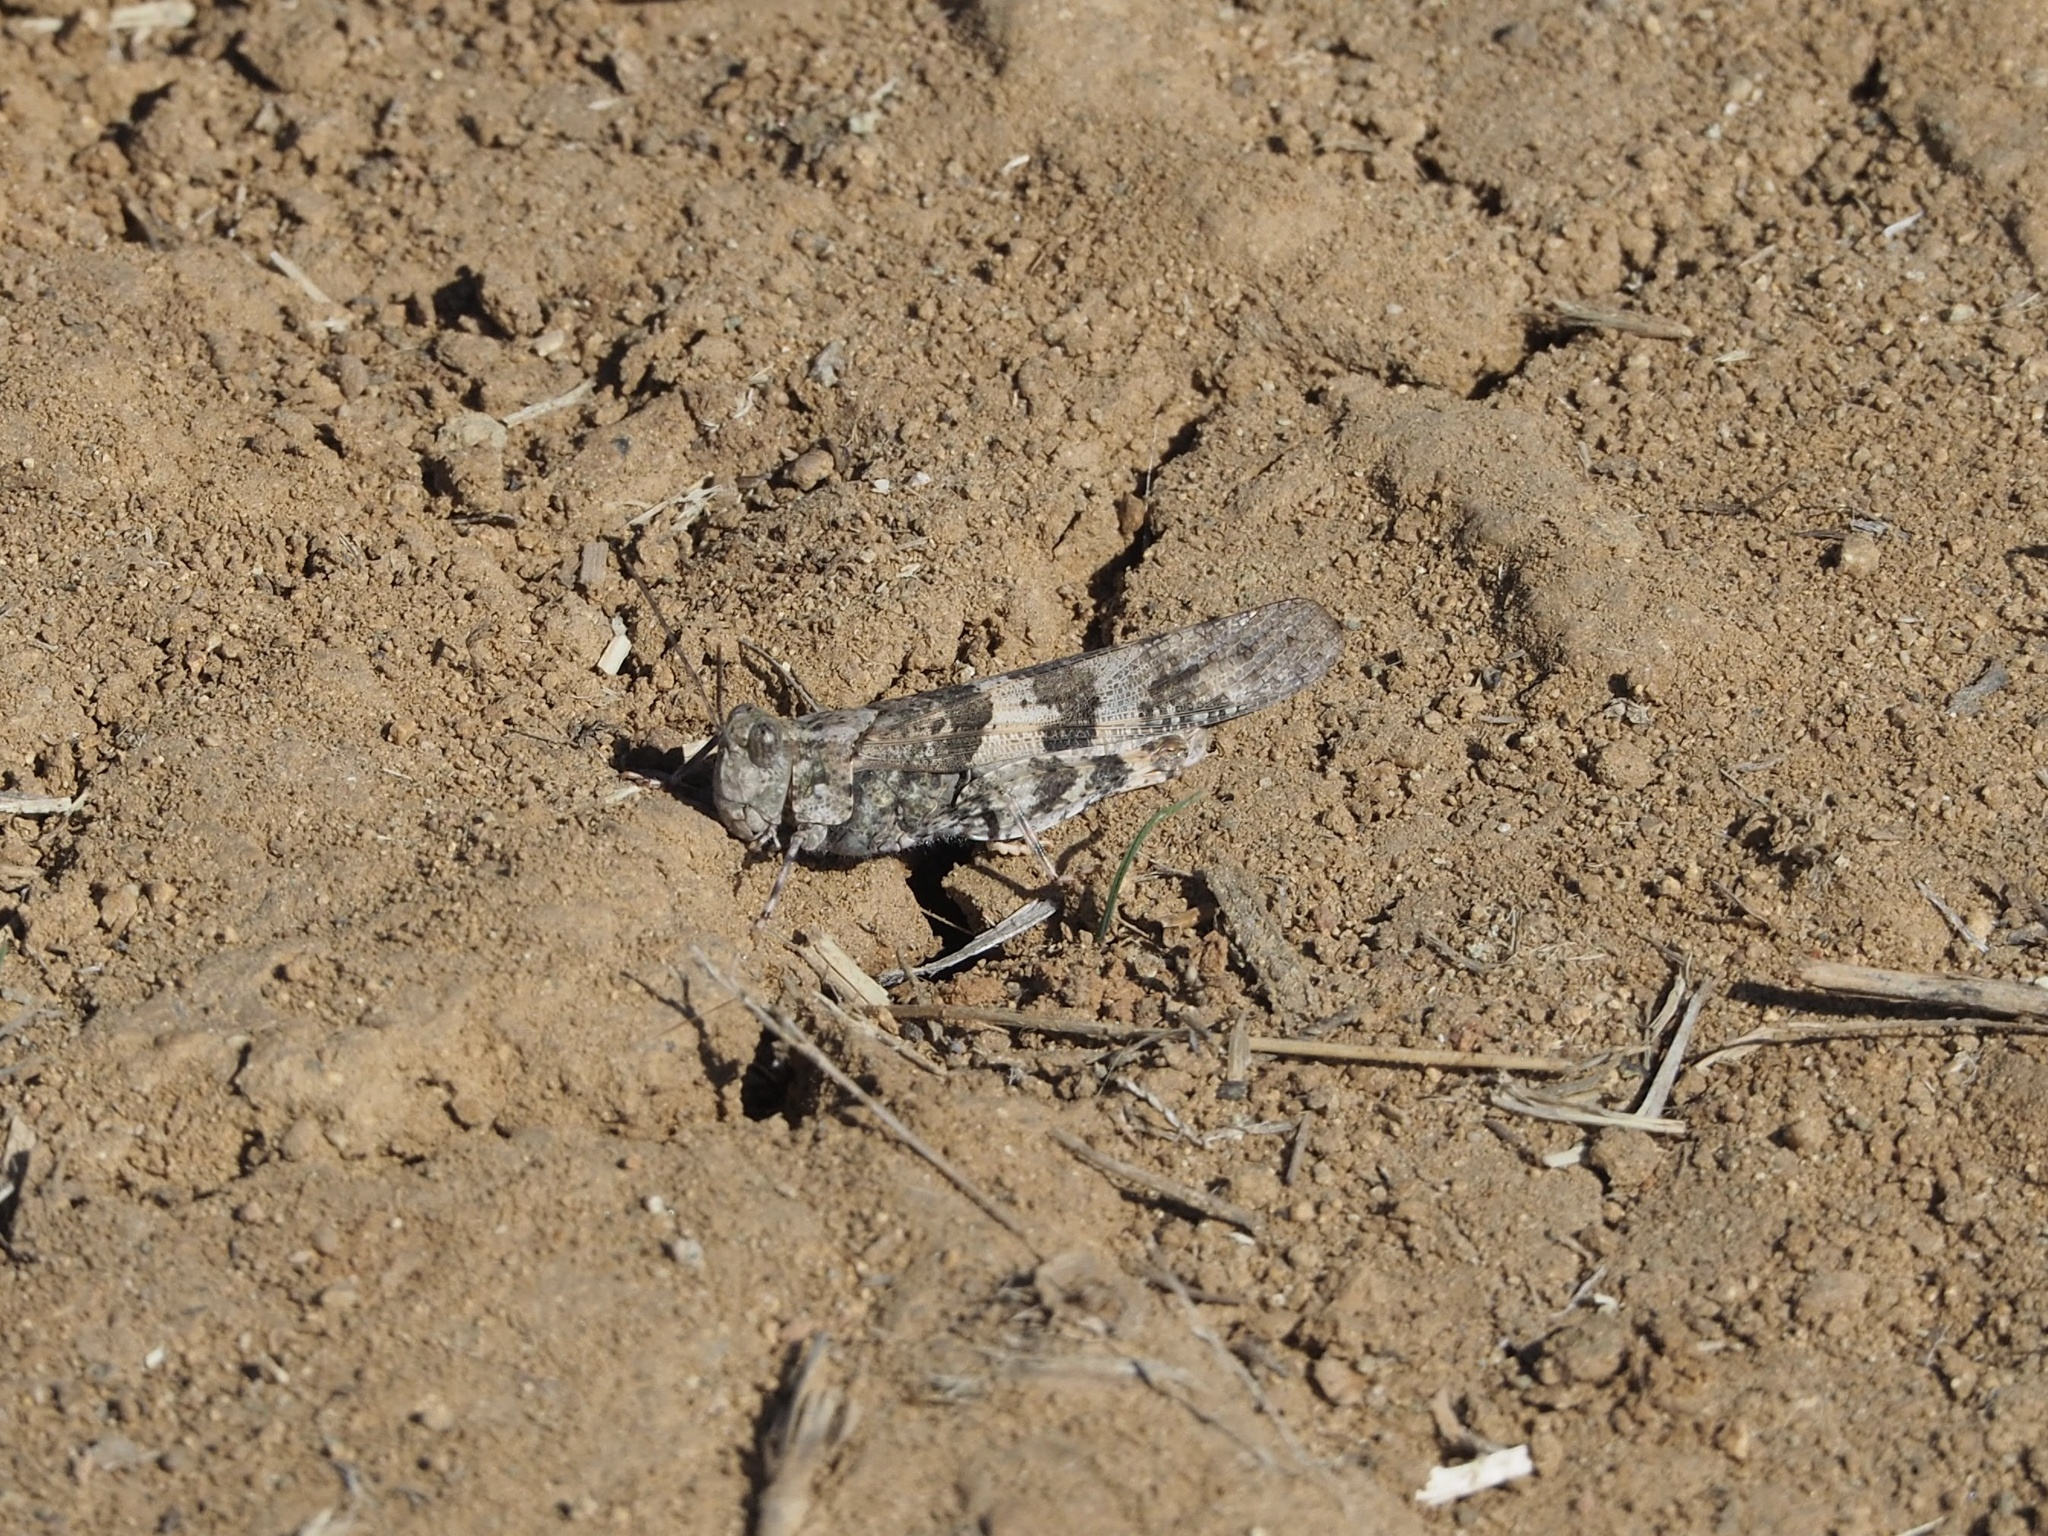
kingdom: Animalia
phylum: Arthropoda
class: Insecta
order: Orthoptera
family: Acrididae
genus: Trimerotropis
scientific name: Trimerotropis pallidipennis
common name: Pallid-winged grasshopper
